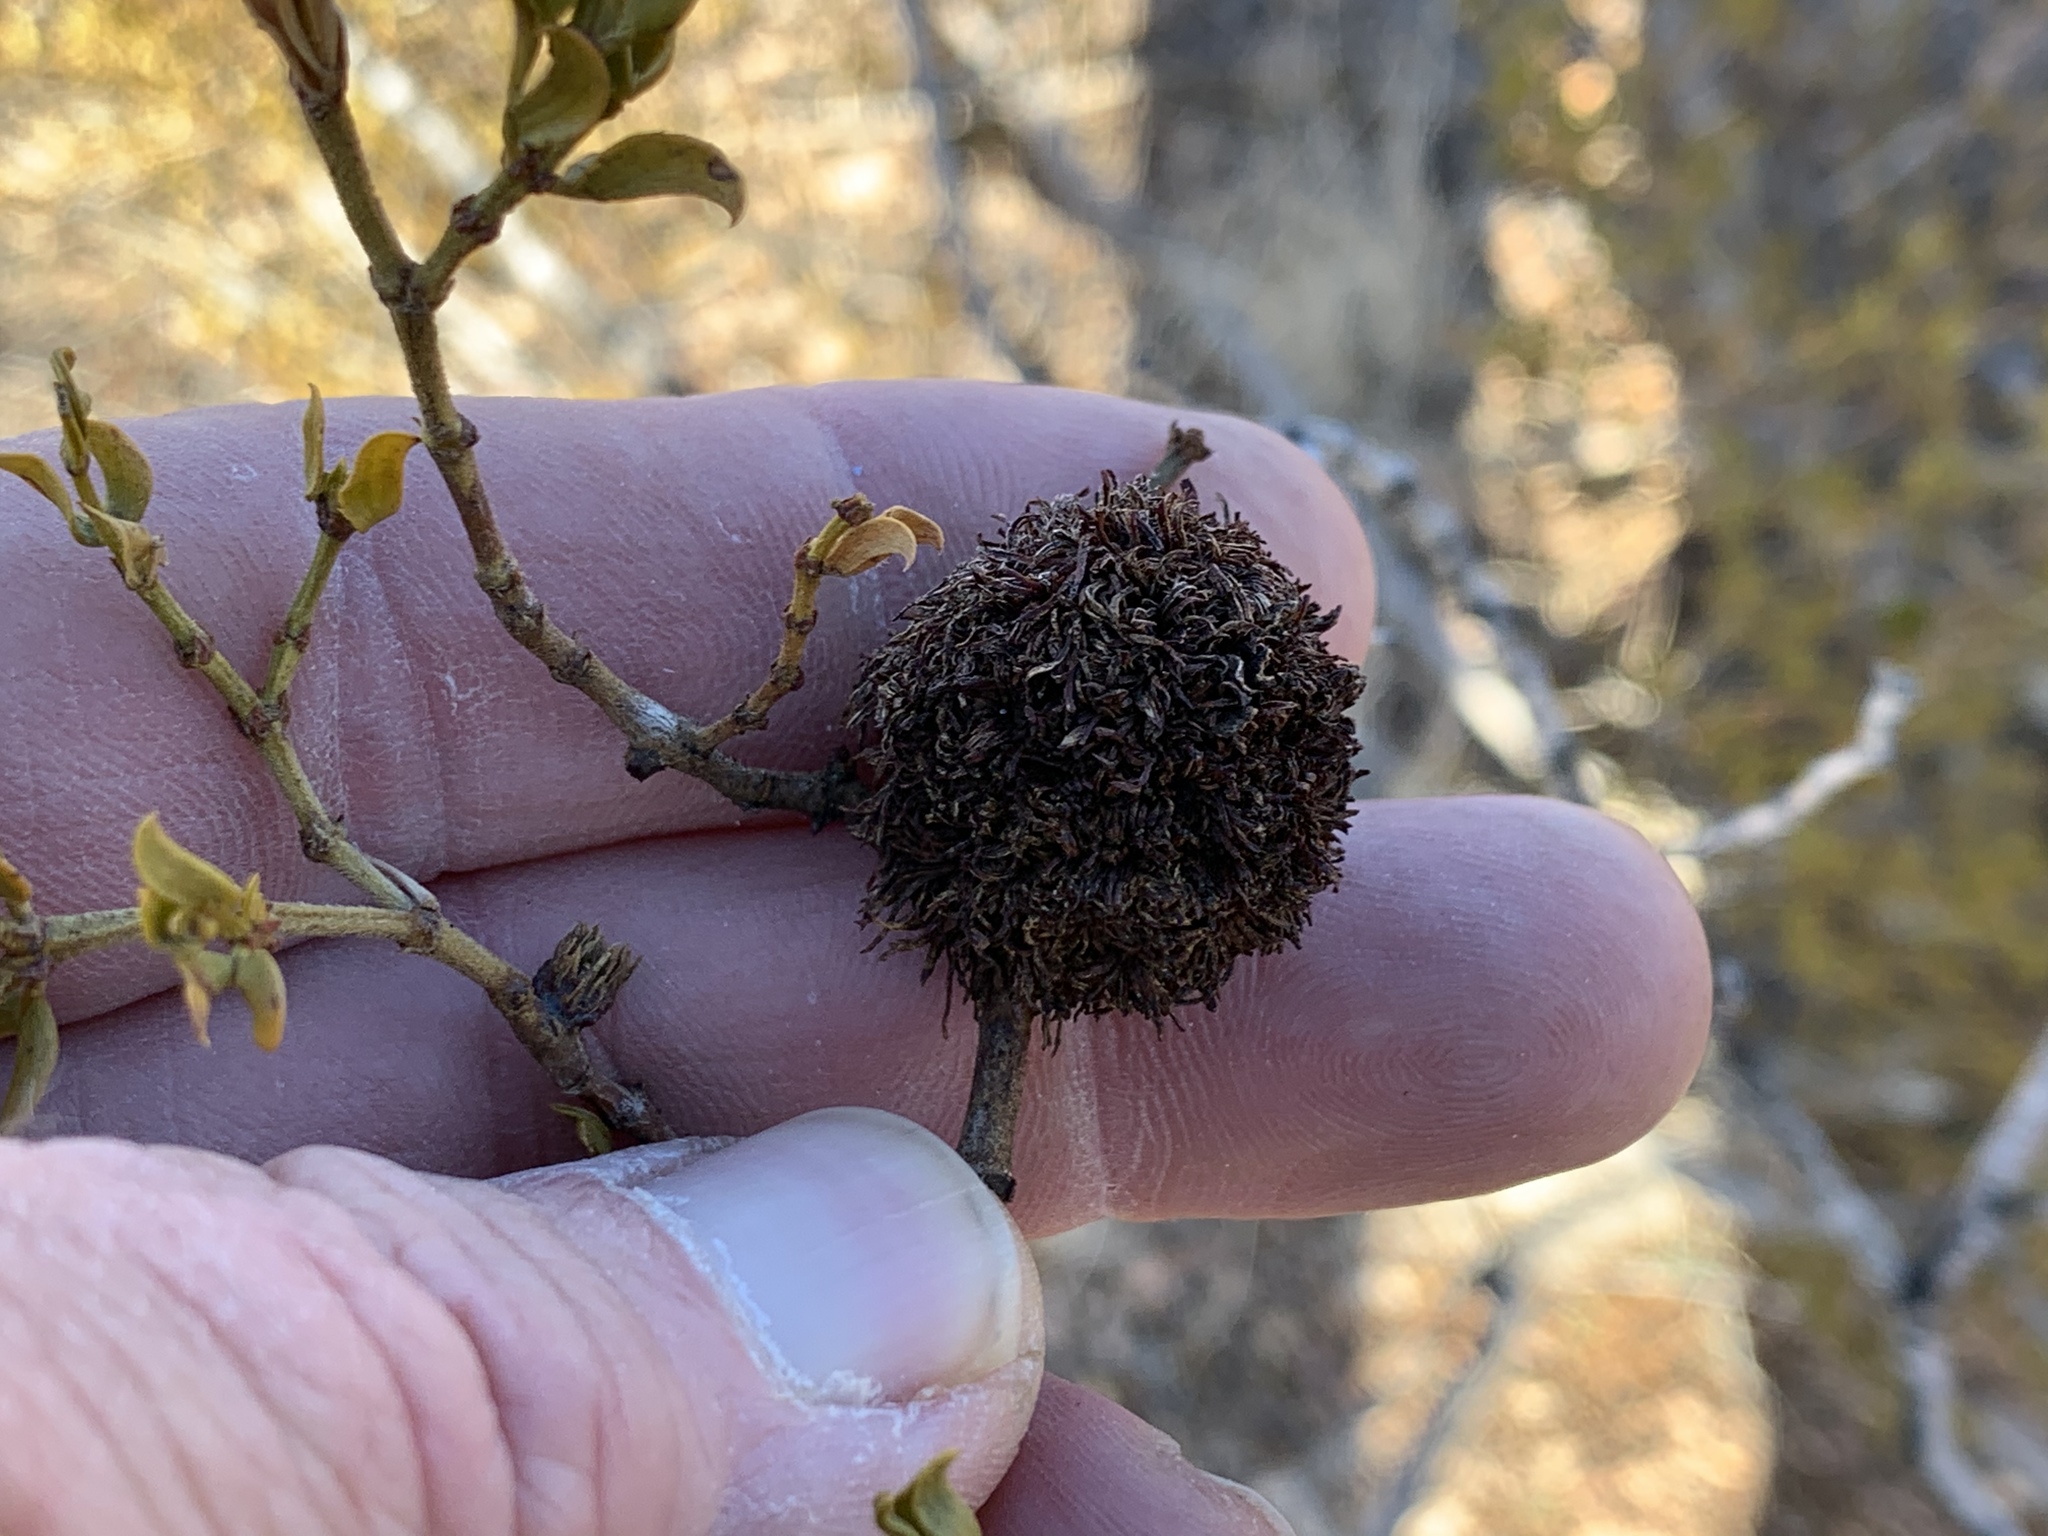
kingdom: Animalia
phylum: Arthropoda
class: Insecta
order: Diptera
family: Cecidomyiidae
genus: Asphondylia
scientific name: Asphondylia auripila
